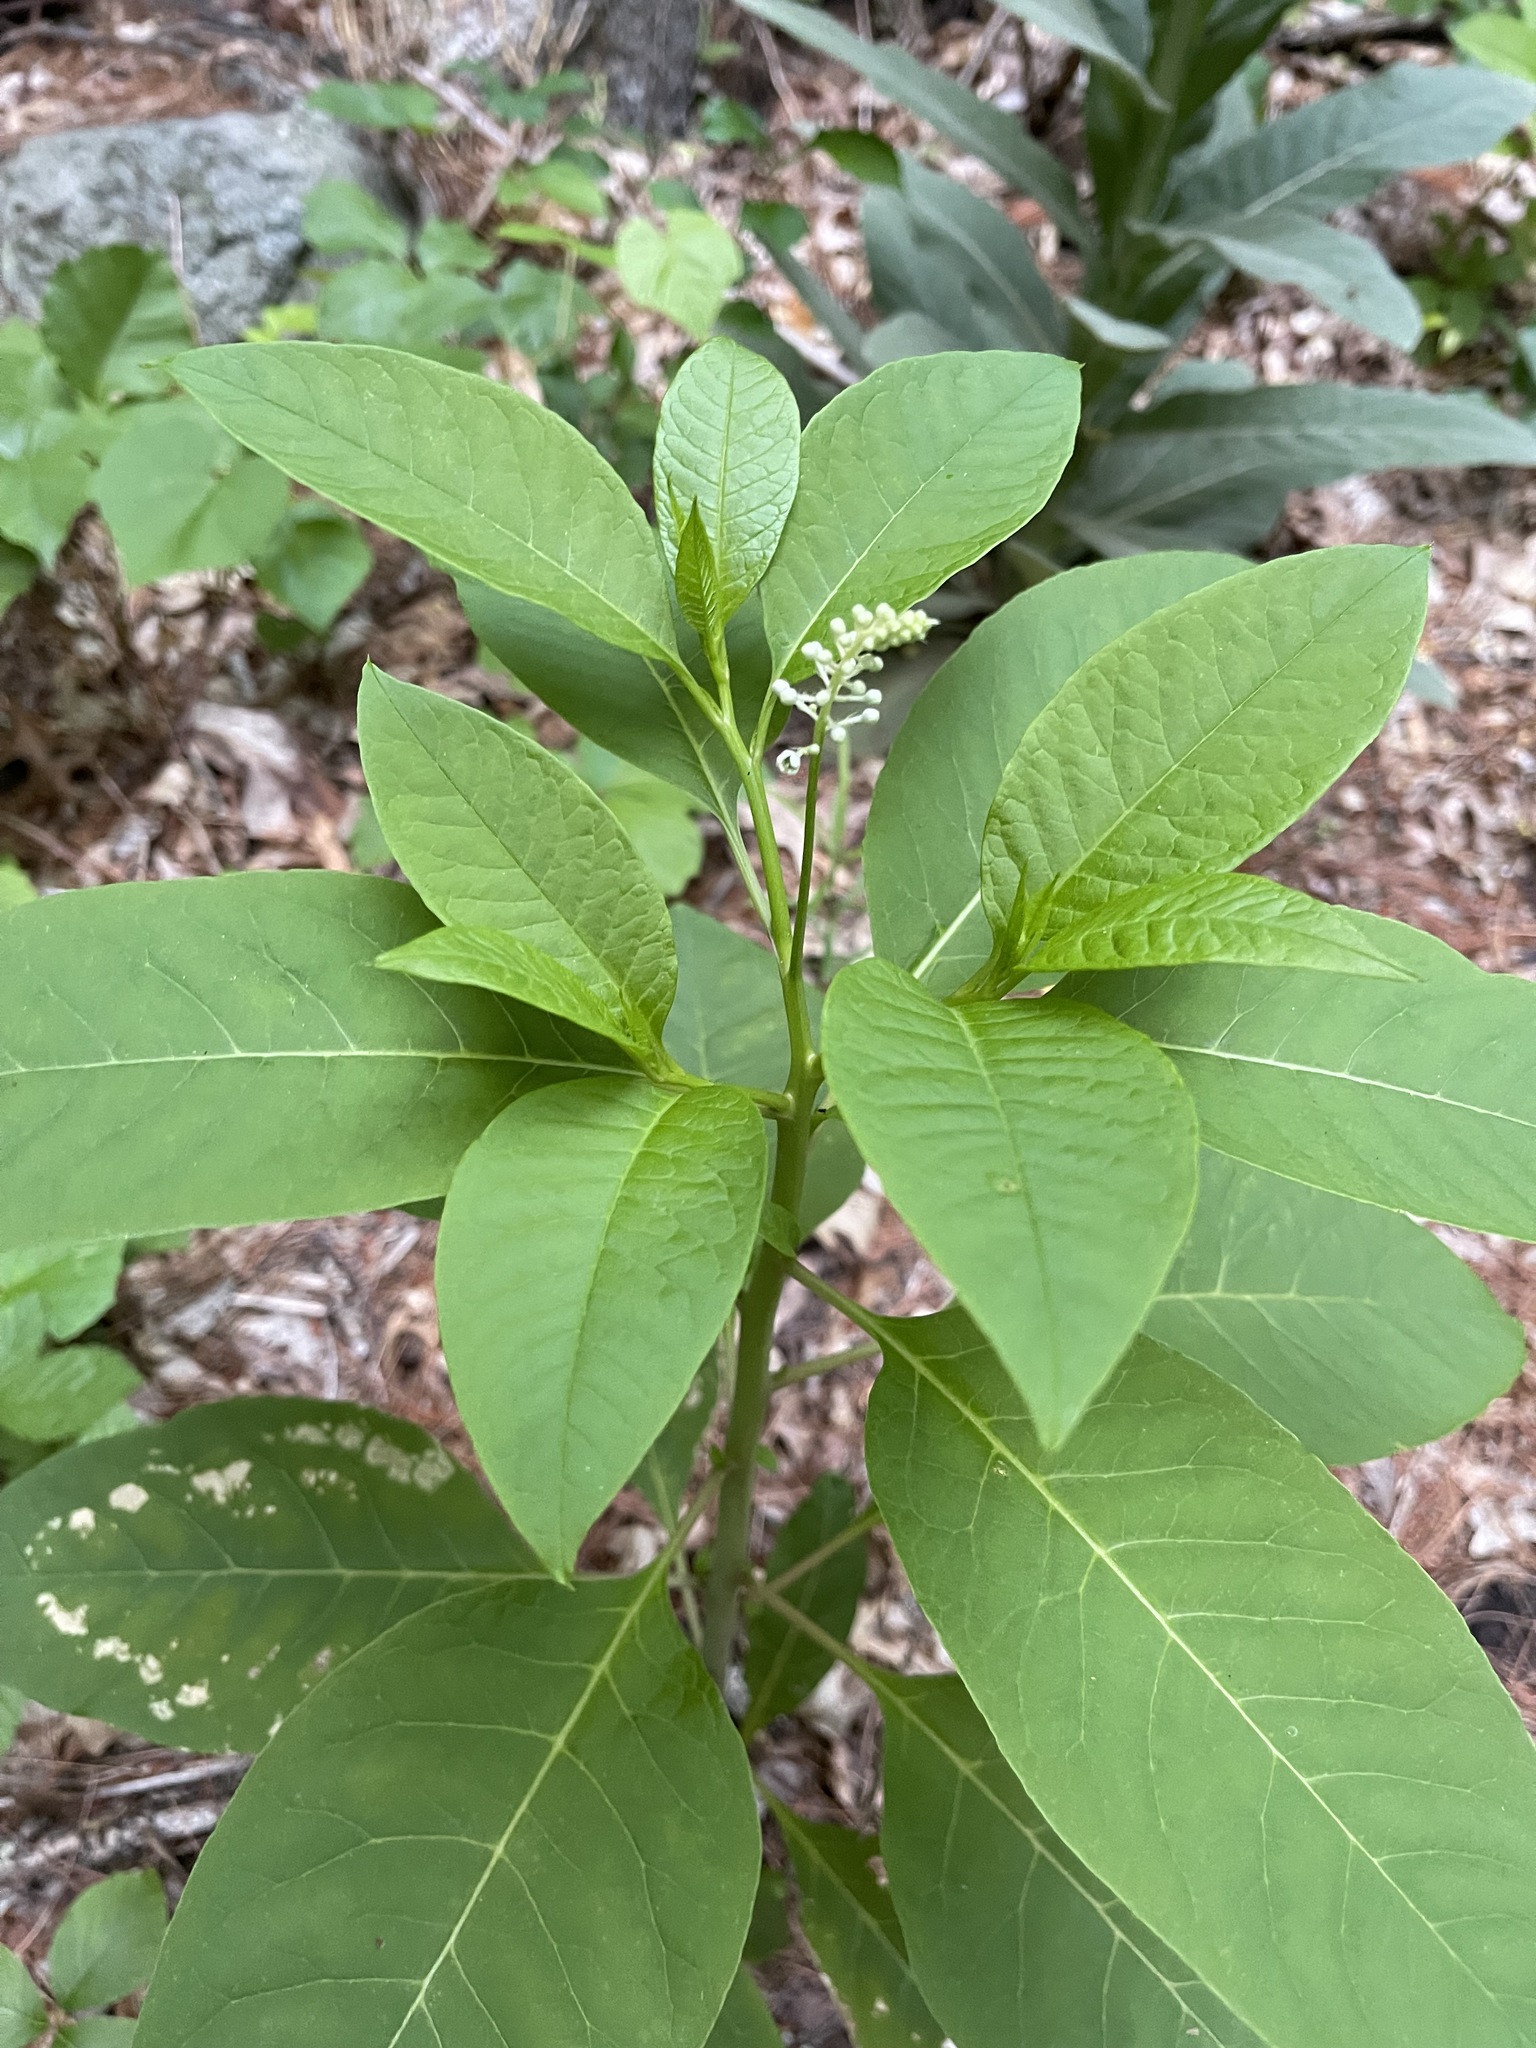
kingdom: Plantae
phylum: Tracheophyta
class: Magnoliopsida
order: Caryophyllales
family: Phytolaccaceae
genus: Phytolacca
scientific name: Phytolacca americana
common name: American pokeweed
